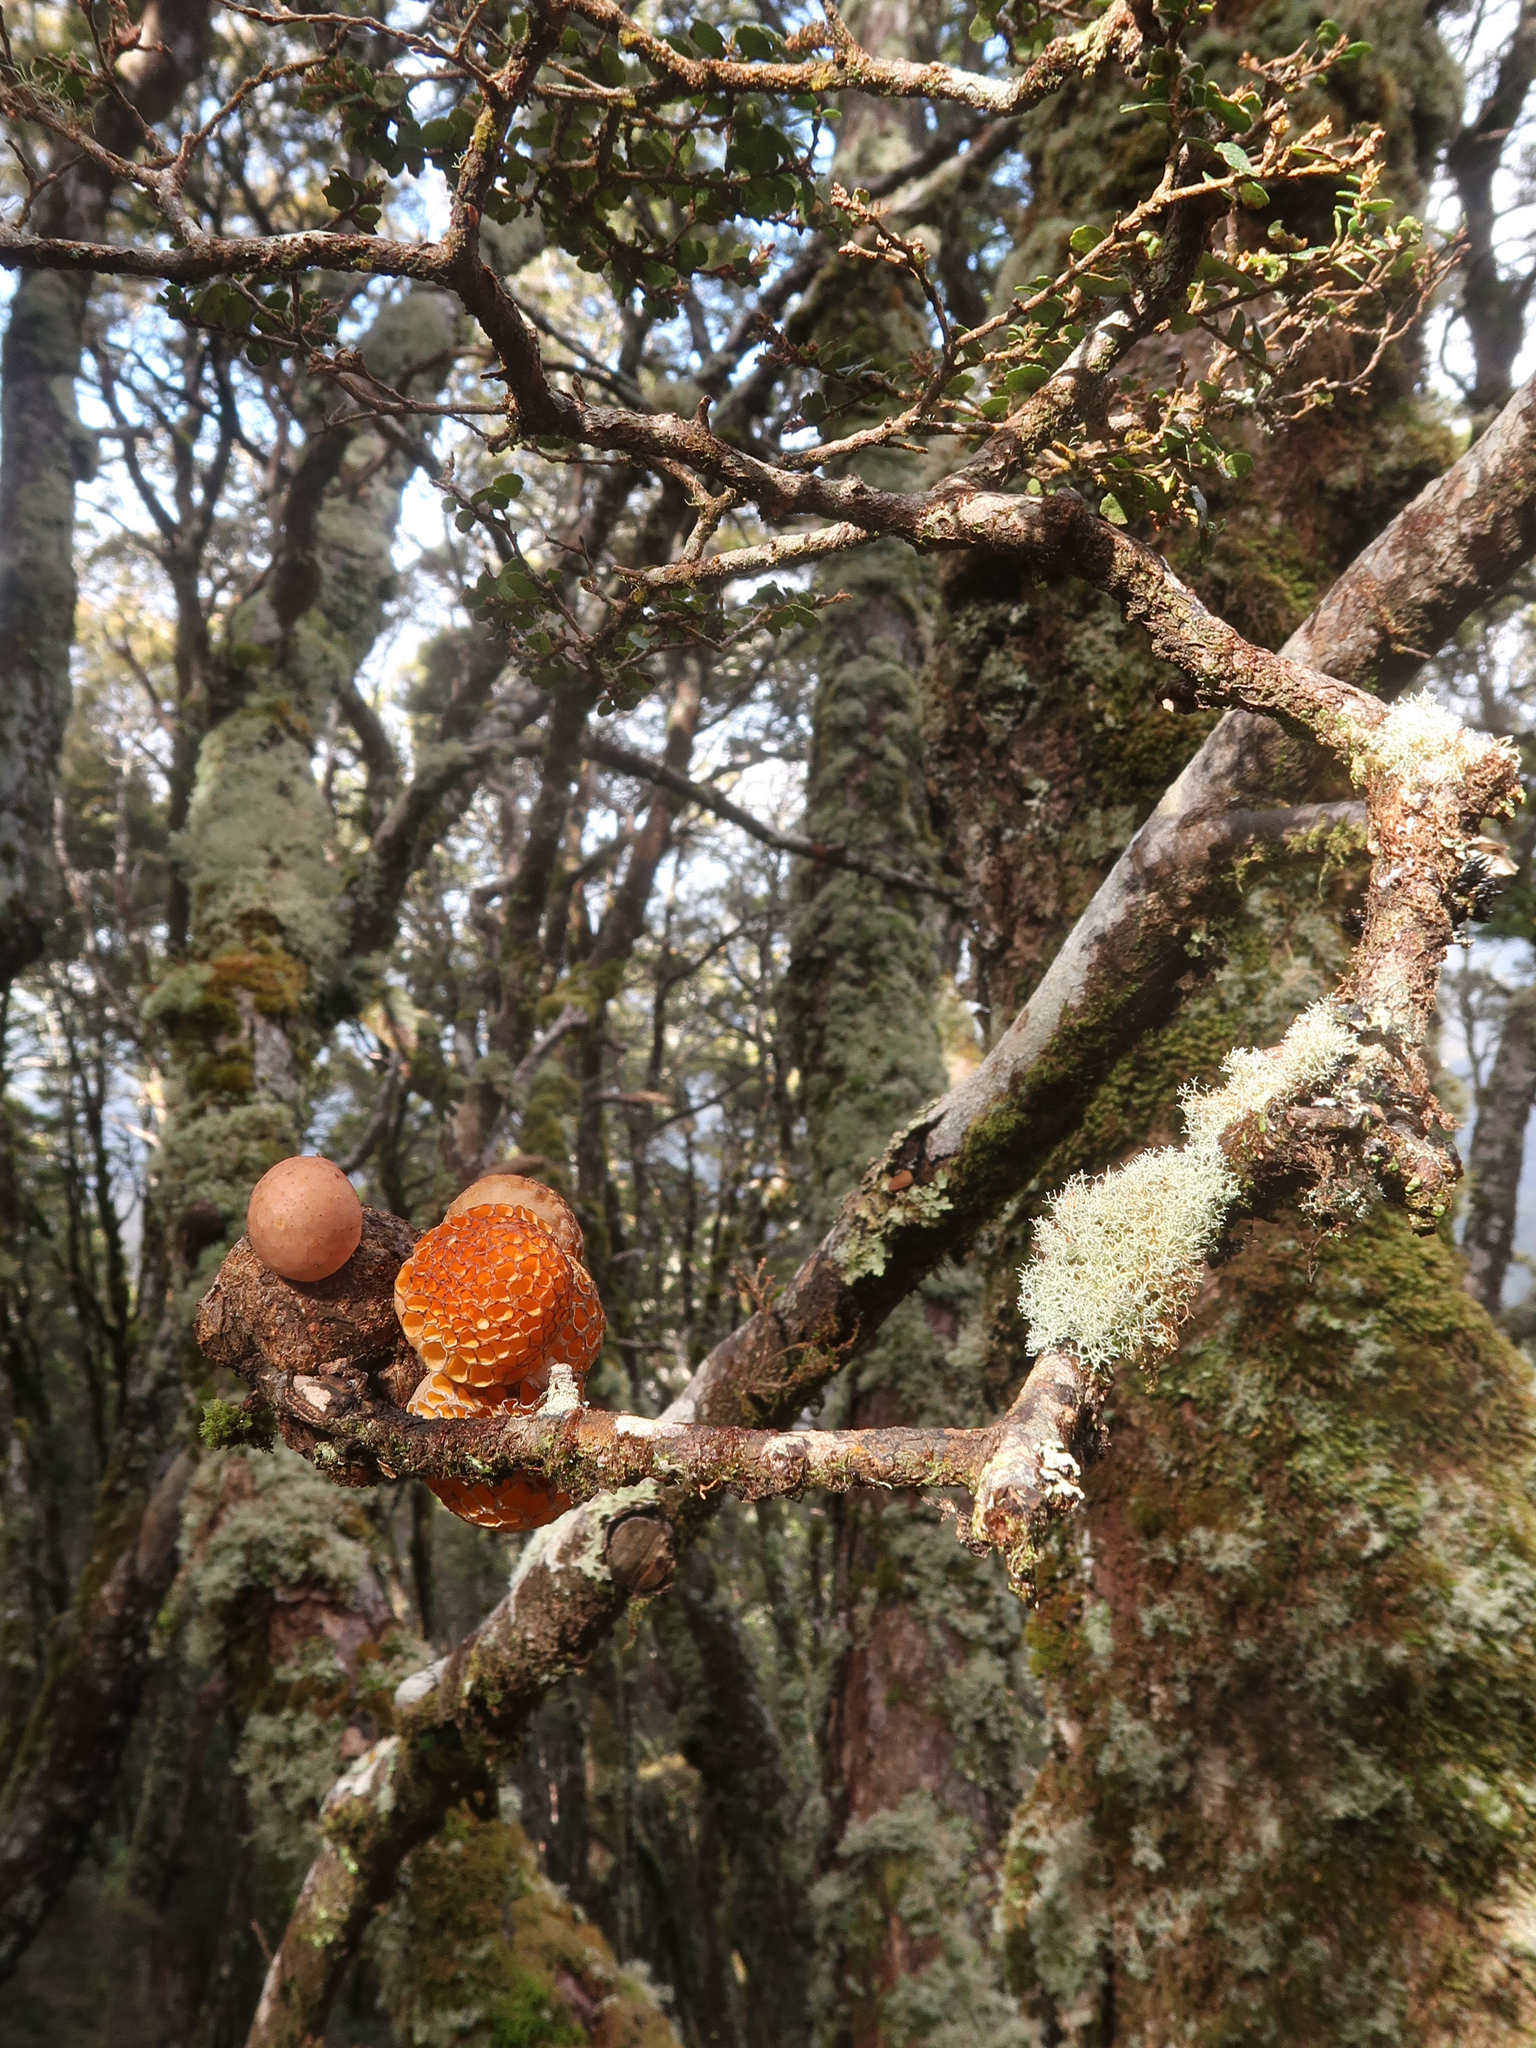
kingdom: Fungi
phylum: Ascomycota
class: Leotiomycetes
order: Cyttariales
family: Cyttariaceae
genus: Cyttaria
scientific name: Cyttaria gunnii
